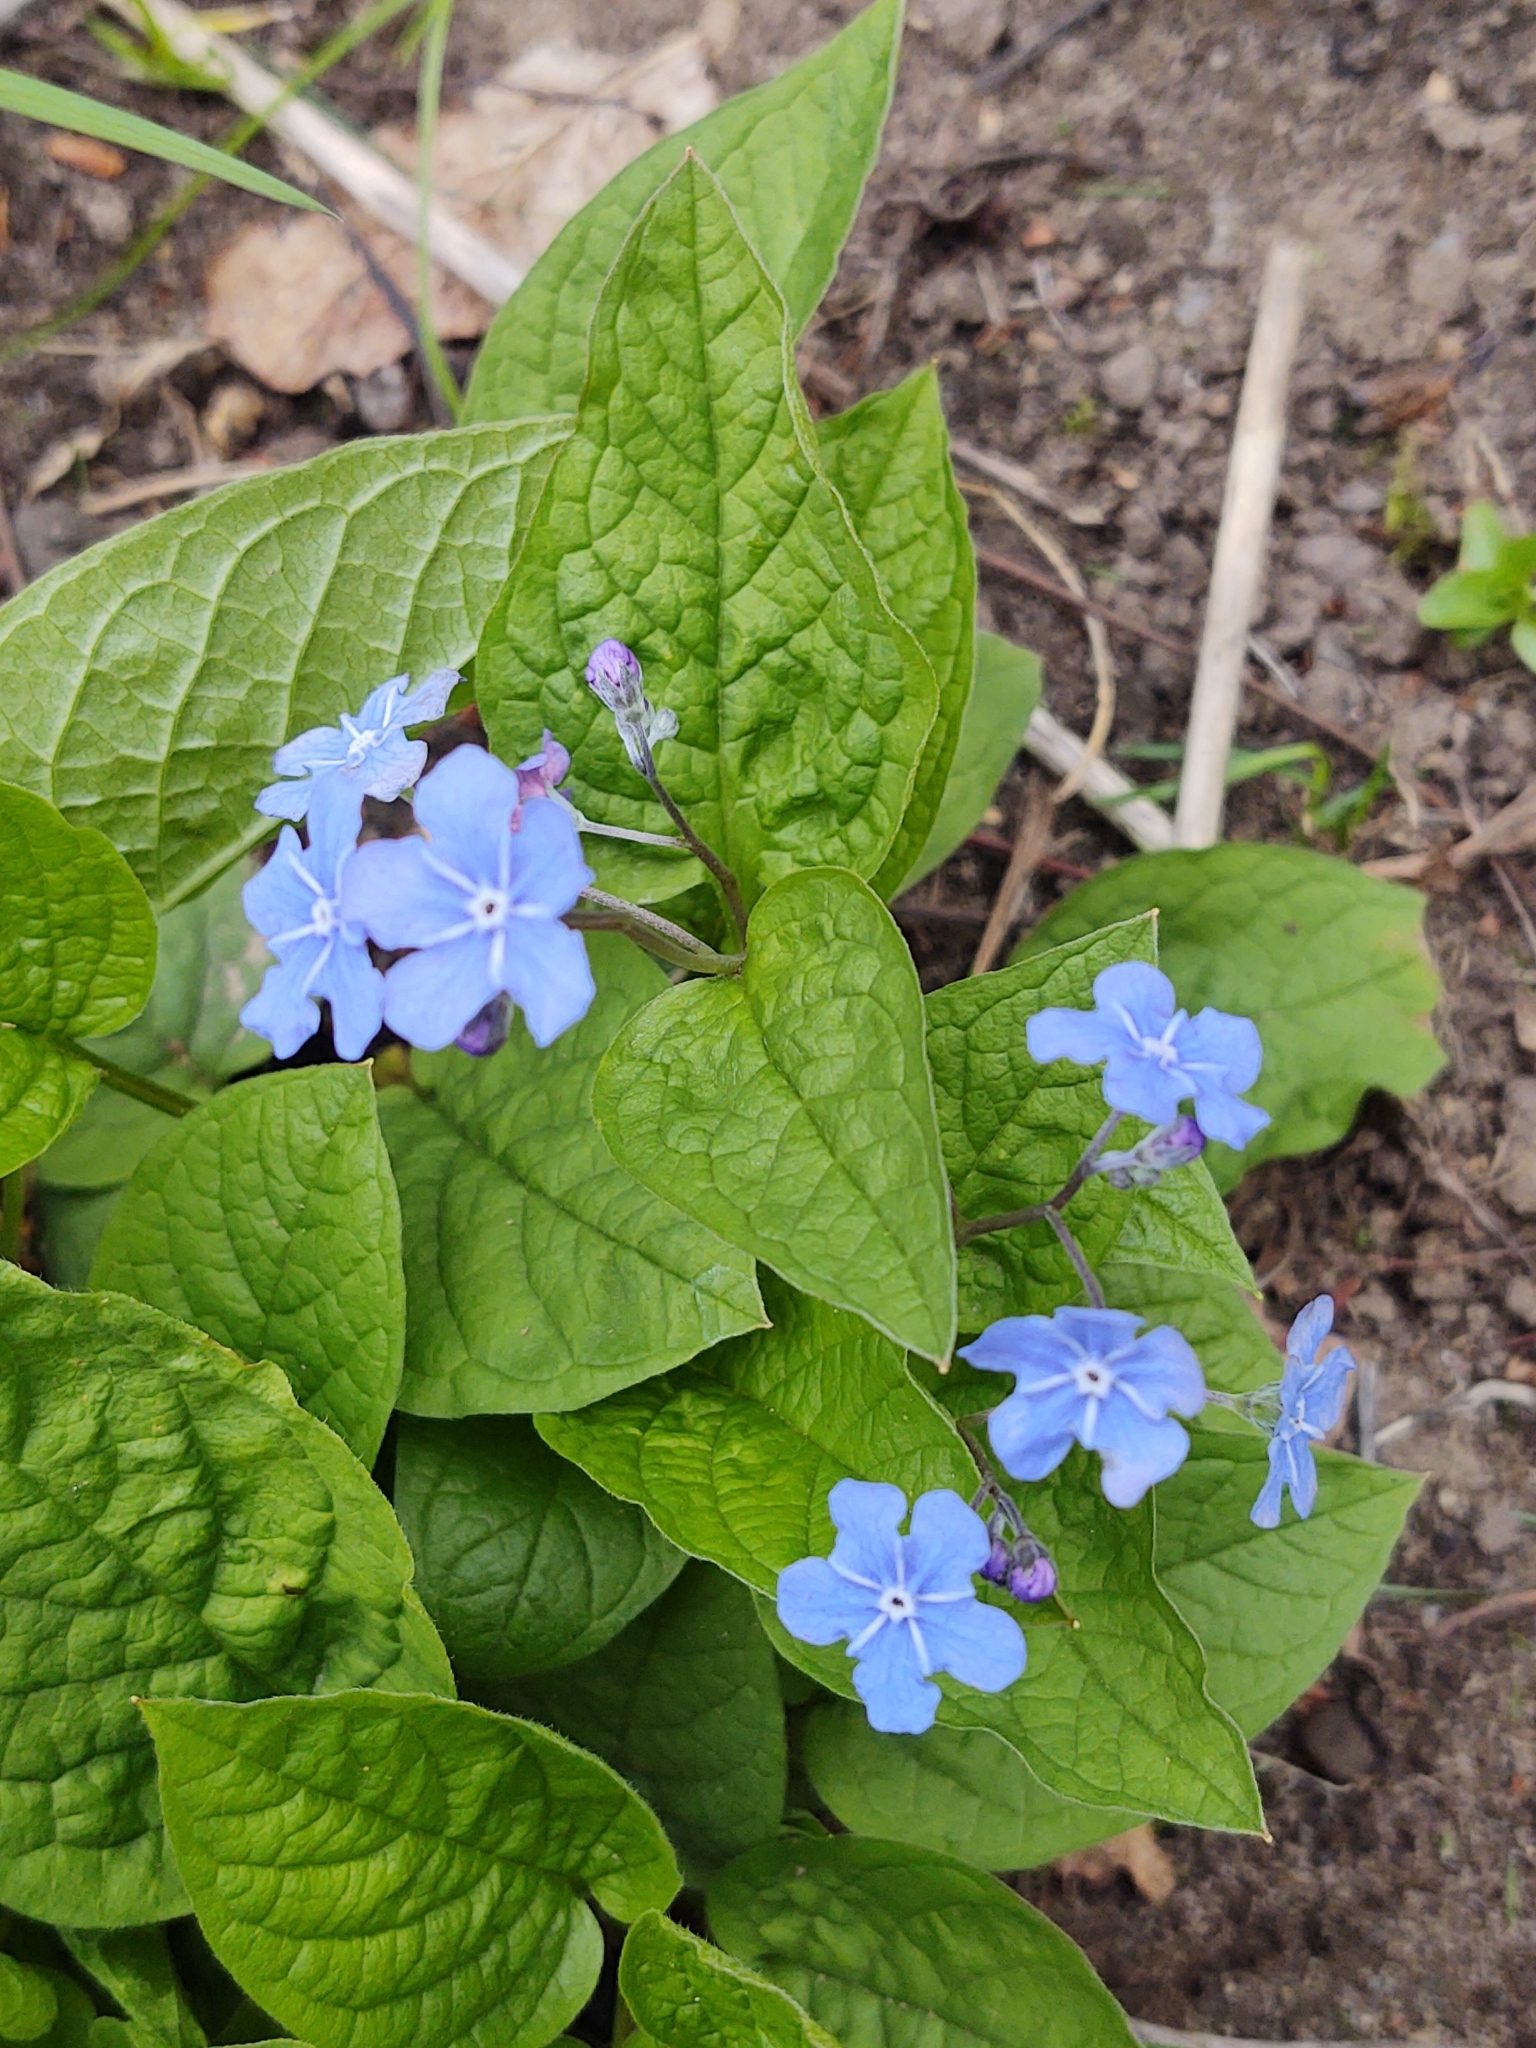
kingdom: Plantae
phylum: Tracheophyta
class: Magnoliopsida
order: Boraginales
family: Boraginaceae
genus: Omphalodes
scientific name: Omphalodes verna
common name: Blue-eyed-mary
